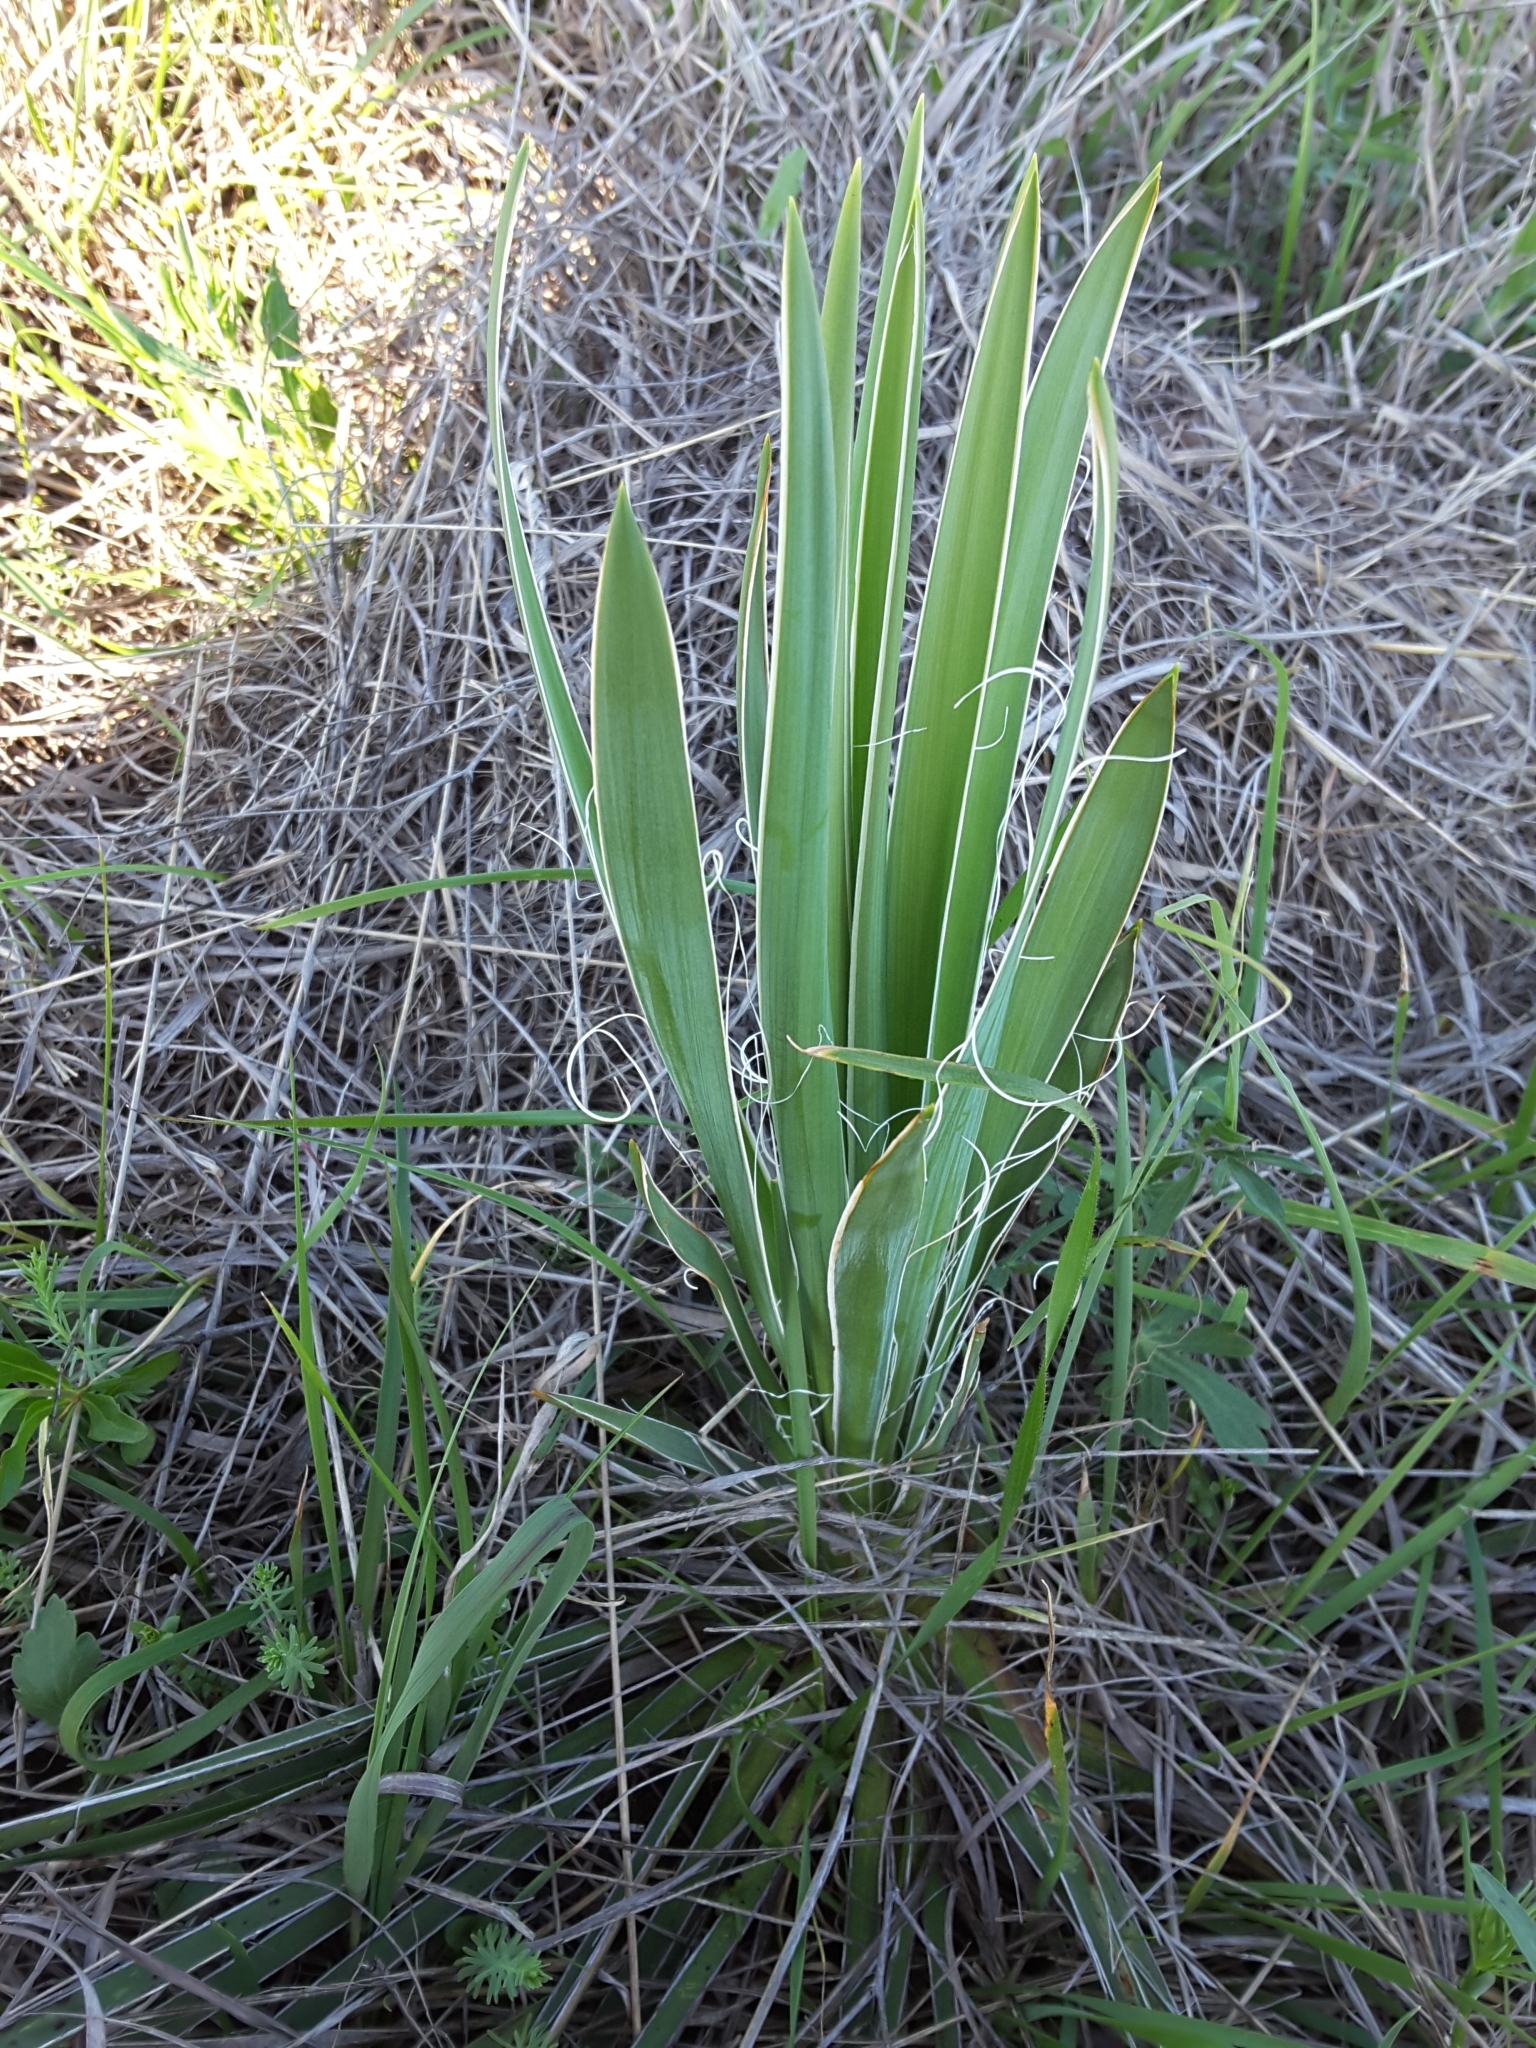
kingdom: Plantae
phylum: Tracheophyta
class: Liliopsida
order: Asparagales
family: Asparagaceae
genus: Yucca
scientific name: Yucca arkansana
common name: Arkansas yucca
